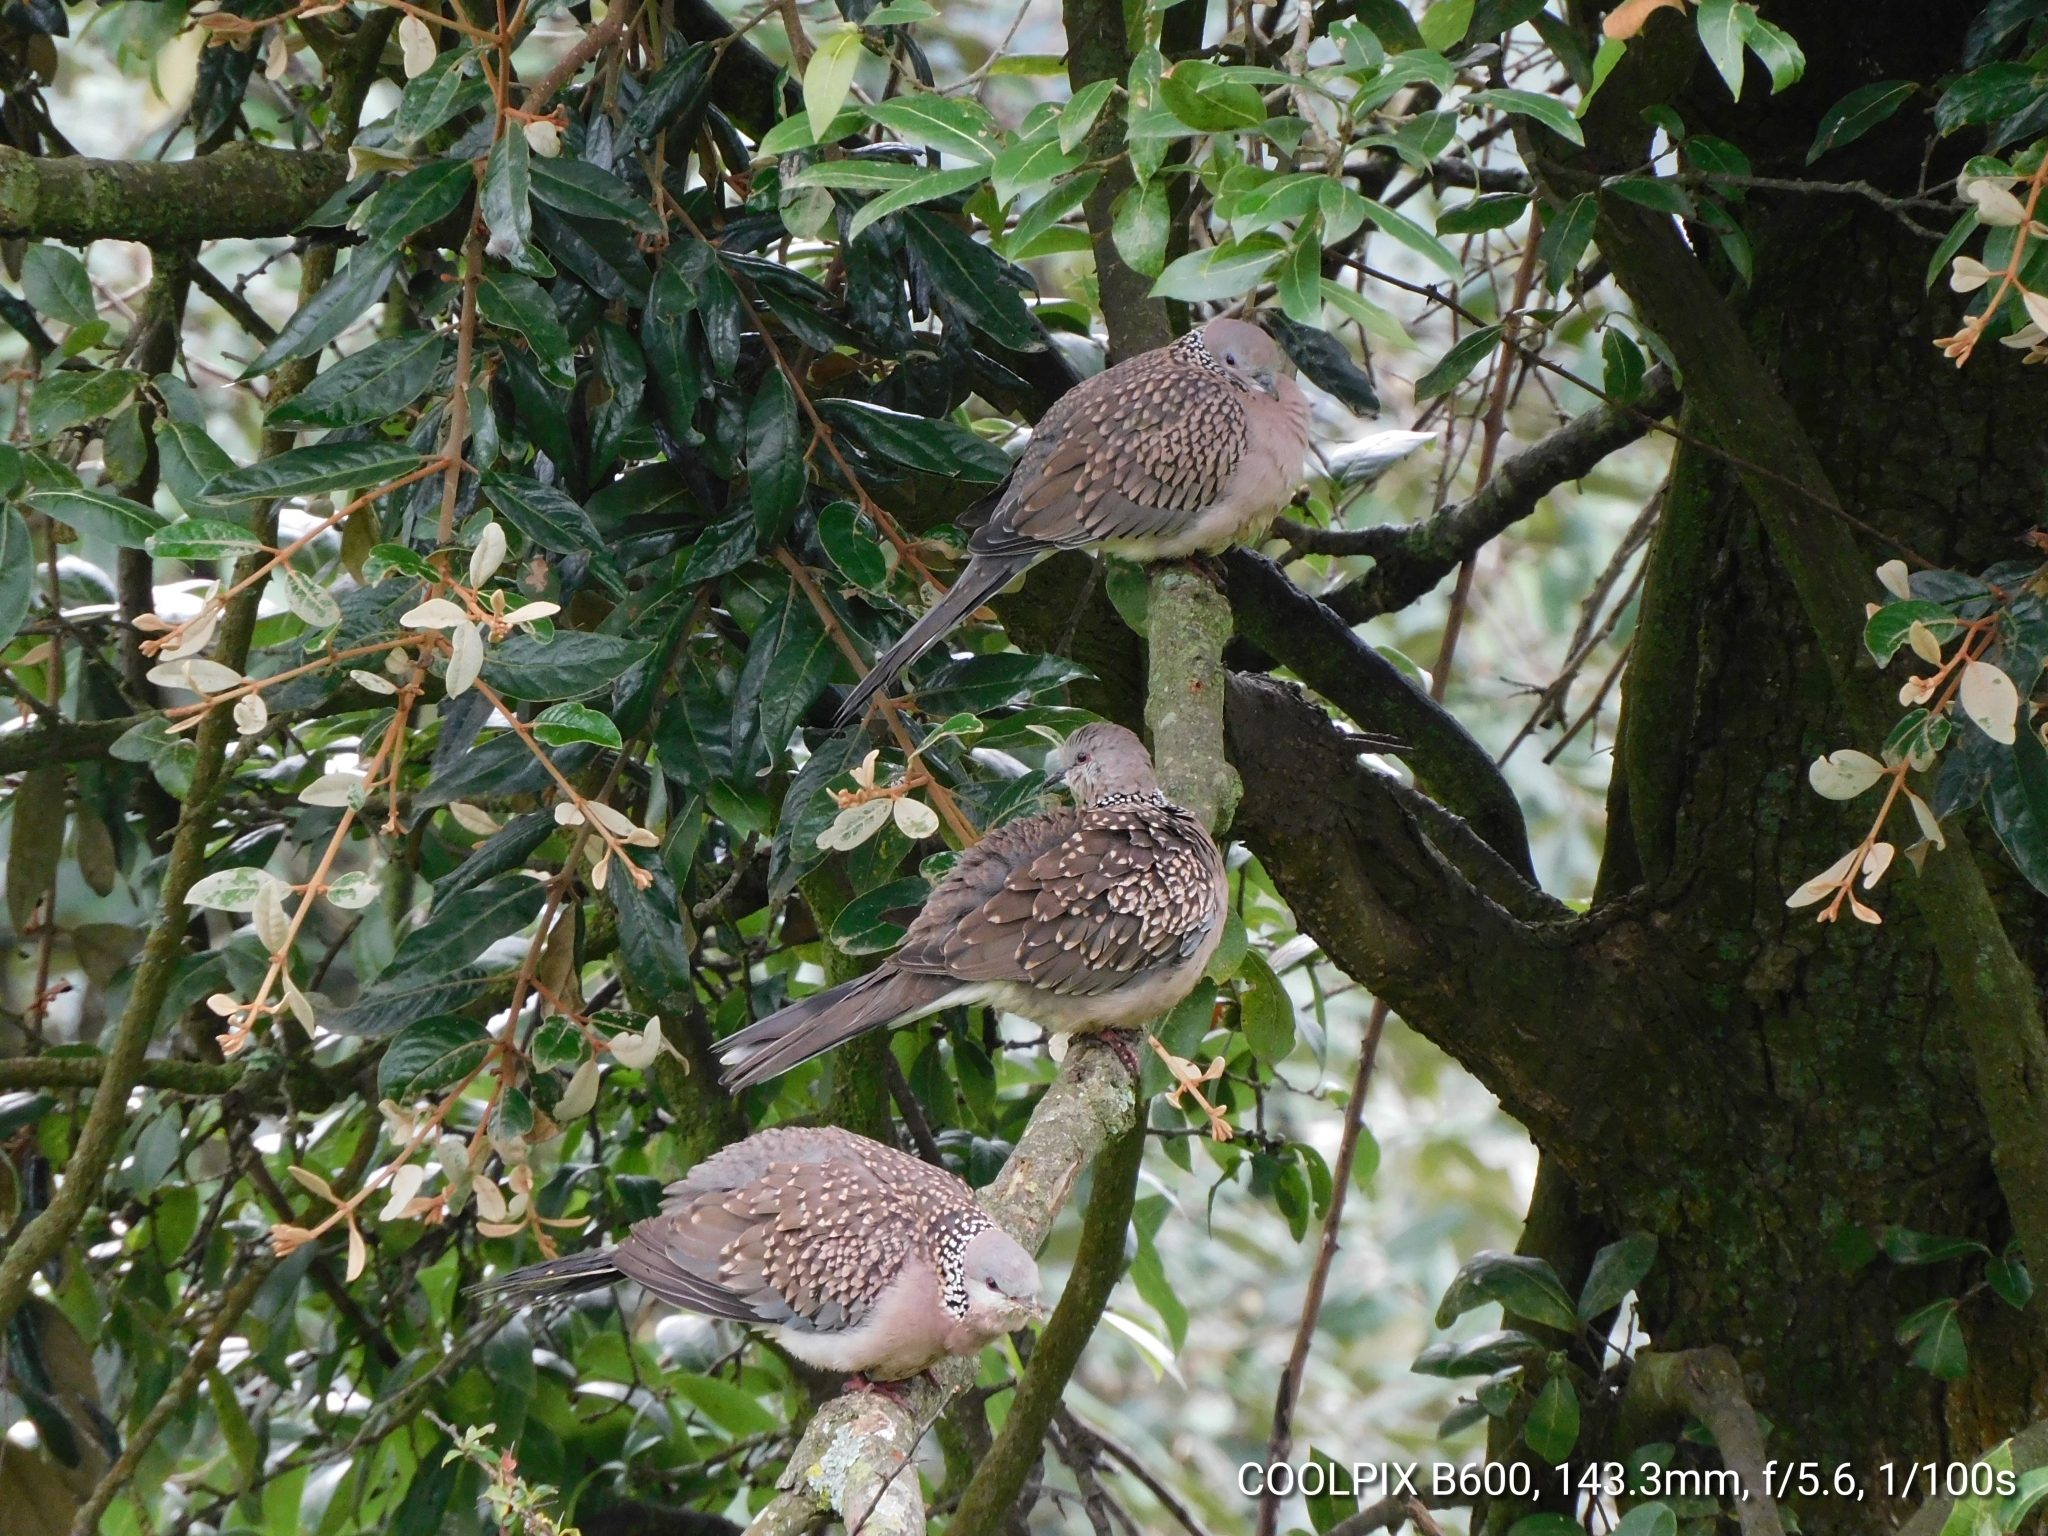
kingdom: Animalia
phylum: Chordata
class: Aves
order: Columbiformes
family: Columbidae
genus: Spilopelia
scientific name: Spilopelia chinensis
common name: Spotted dove
